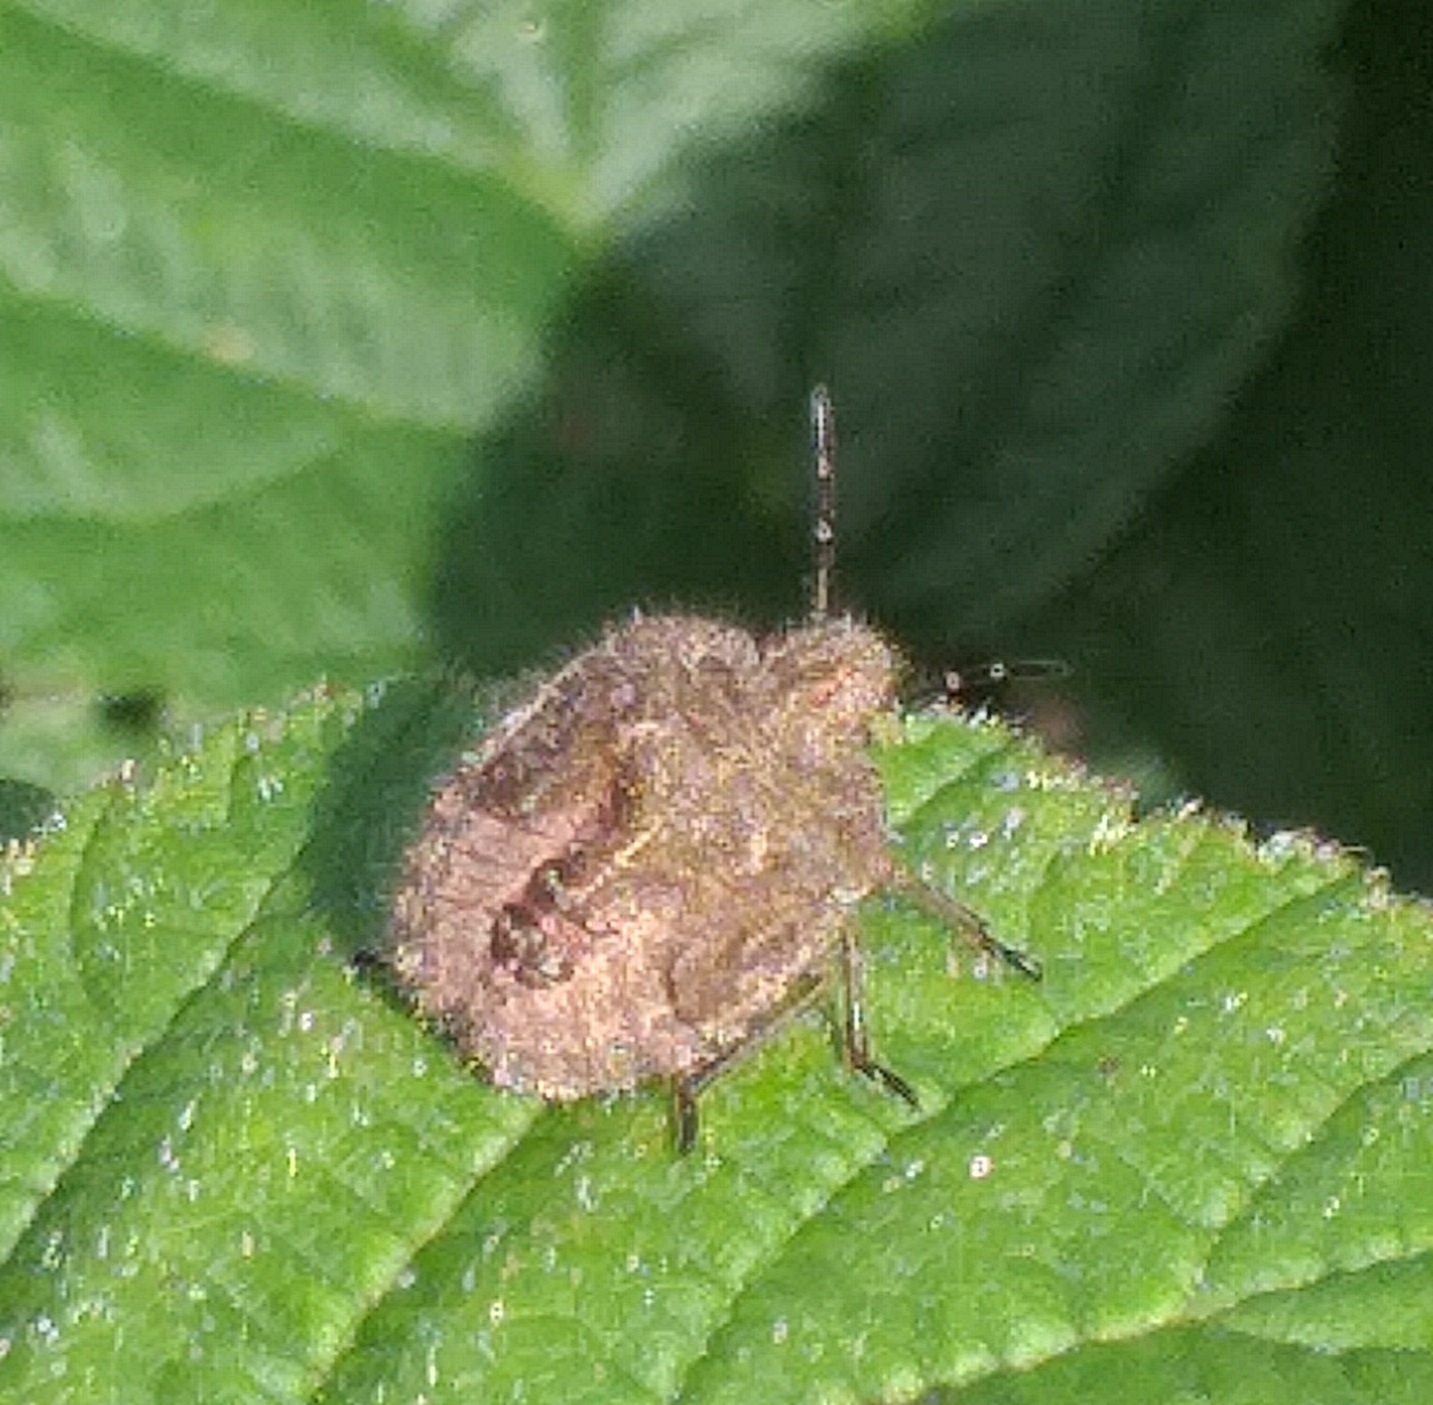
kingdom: Animalia
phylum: Arthropoda
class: Insecta
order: Hemiptera
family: Pentatomidae
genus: Dolycoris
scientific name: Dolycoris baccarum
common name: Sloe bug
